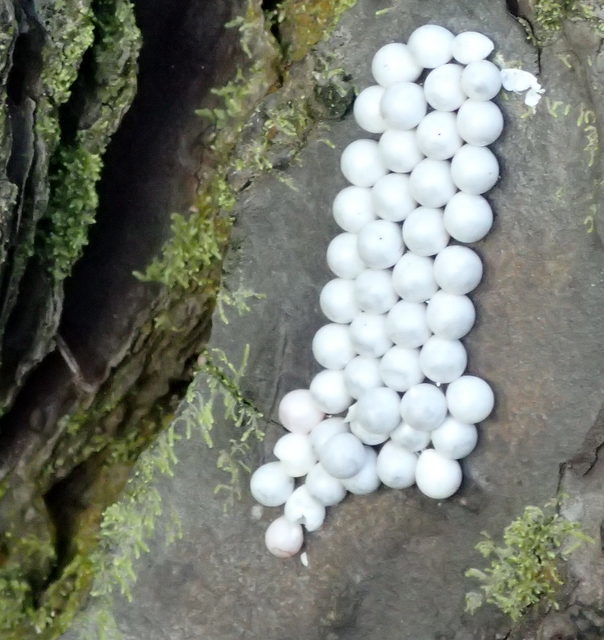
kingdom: Animalia
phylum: Mollusca
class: Gastropoda
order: Architaenioglossa
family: Ampullariidae
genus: Pomacea
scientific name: Pomacea paludosa
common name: Florida applesnail
